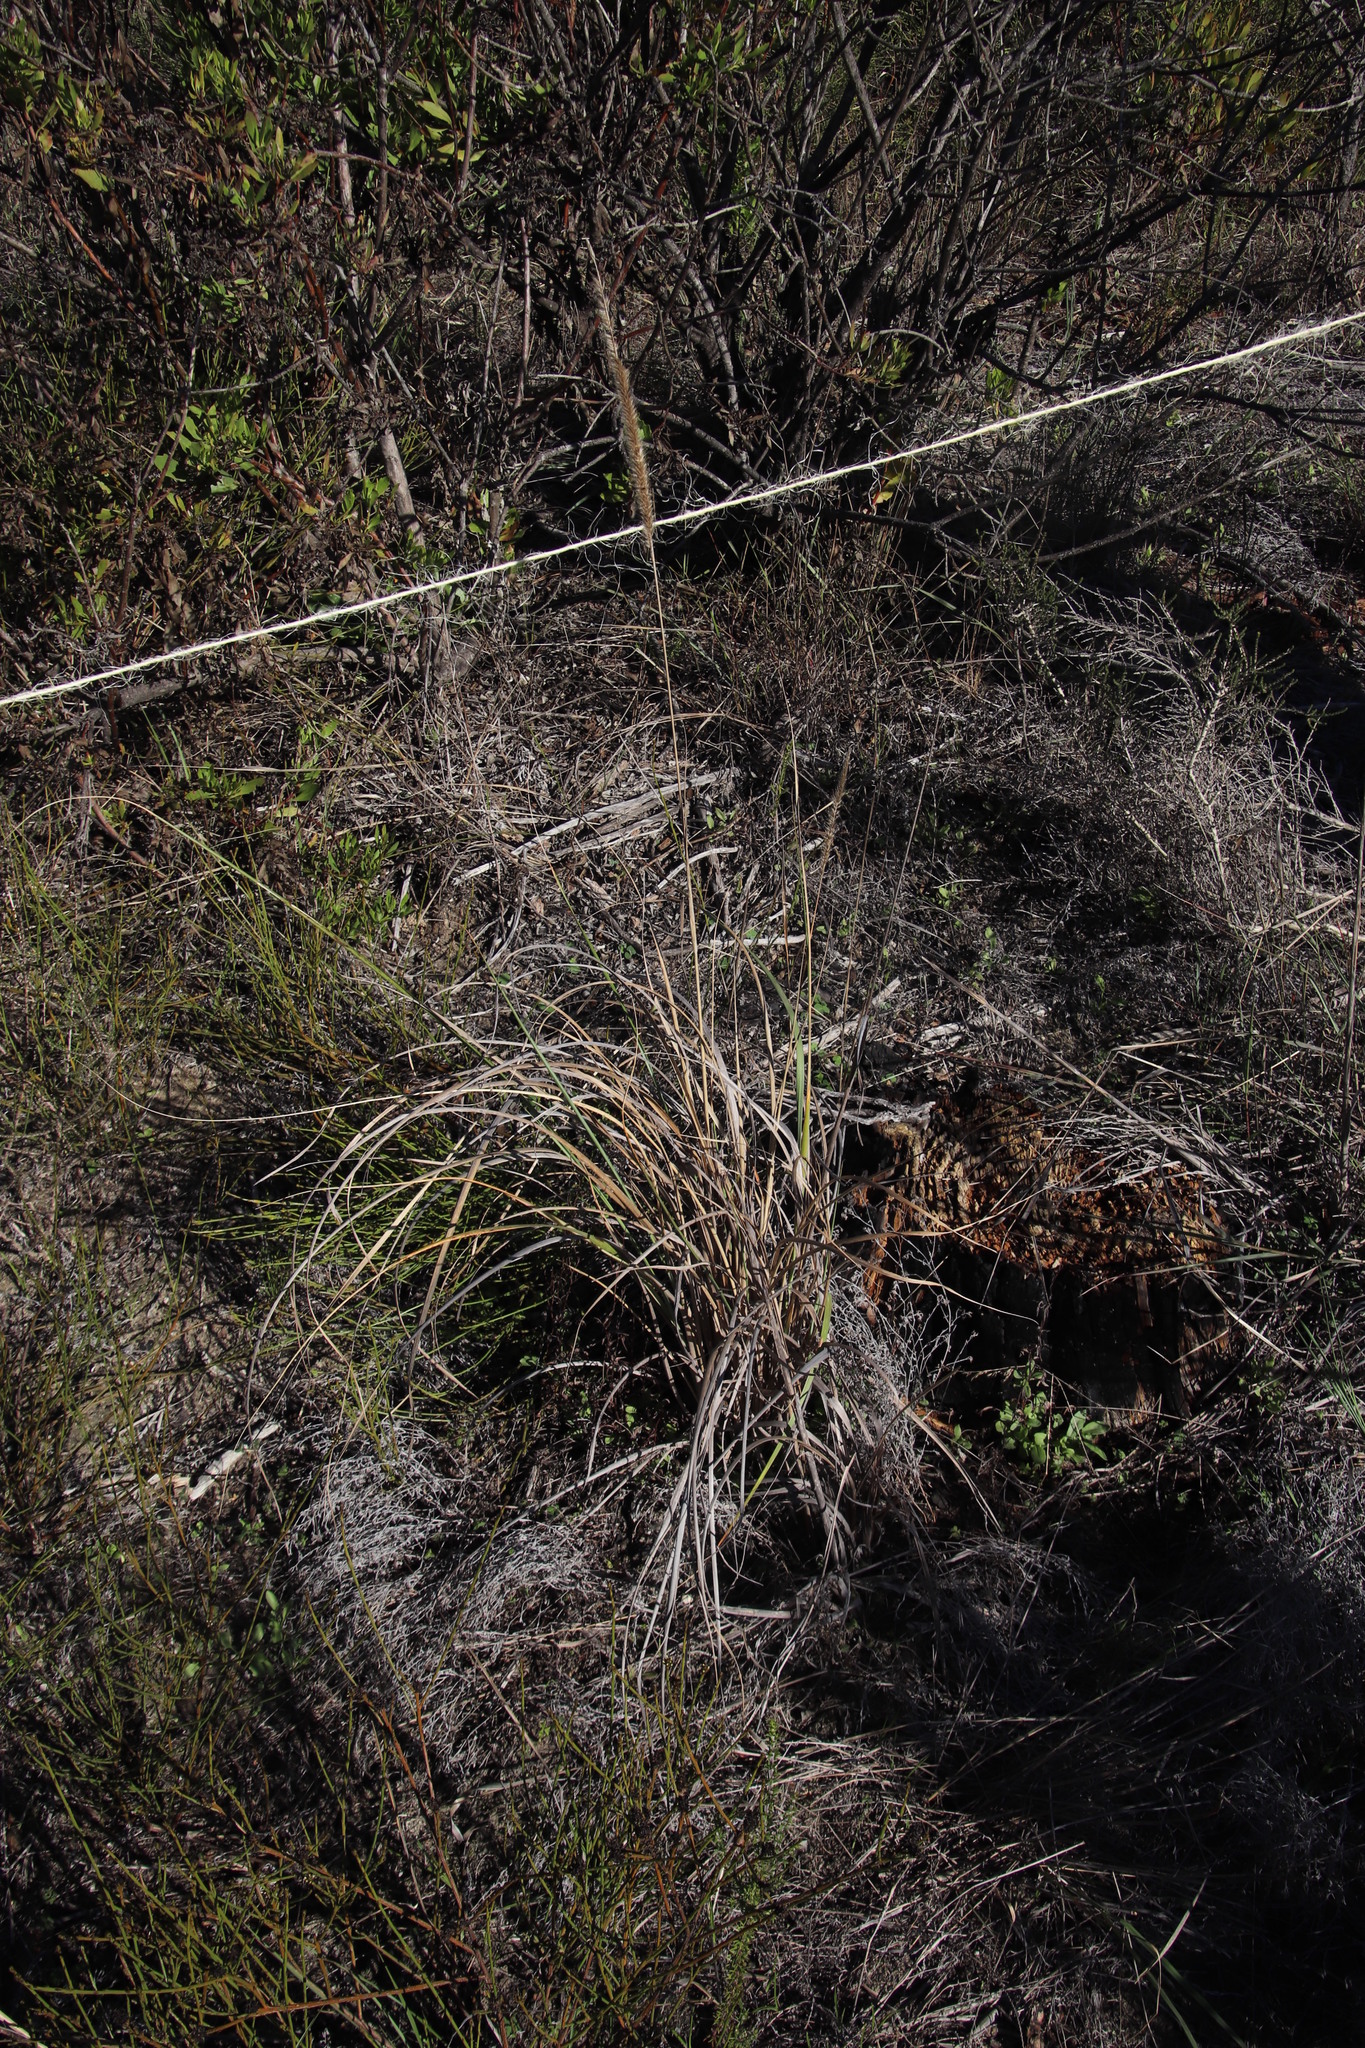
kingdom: Plantae
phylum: Tracheophyta
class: Liliopsida
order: Poales
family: Poaceae
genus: Cenchrus
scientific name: Cenchrus caudatus
